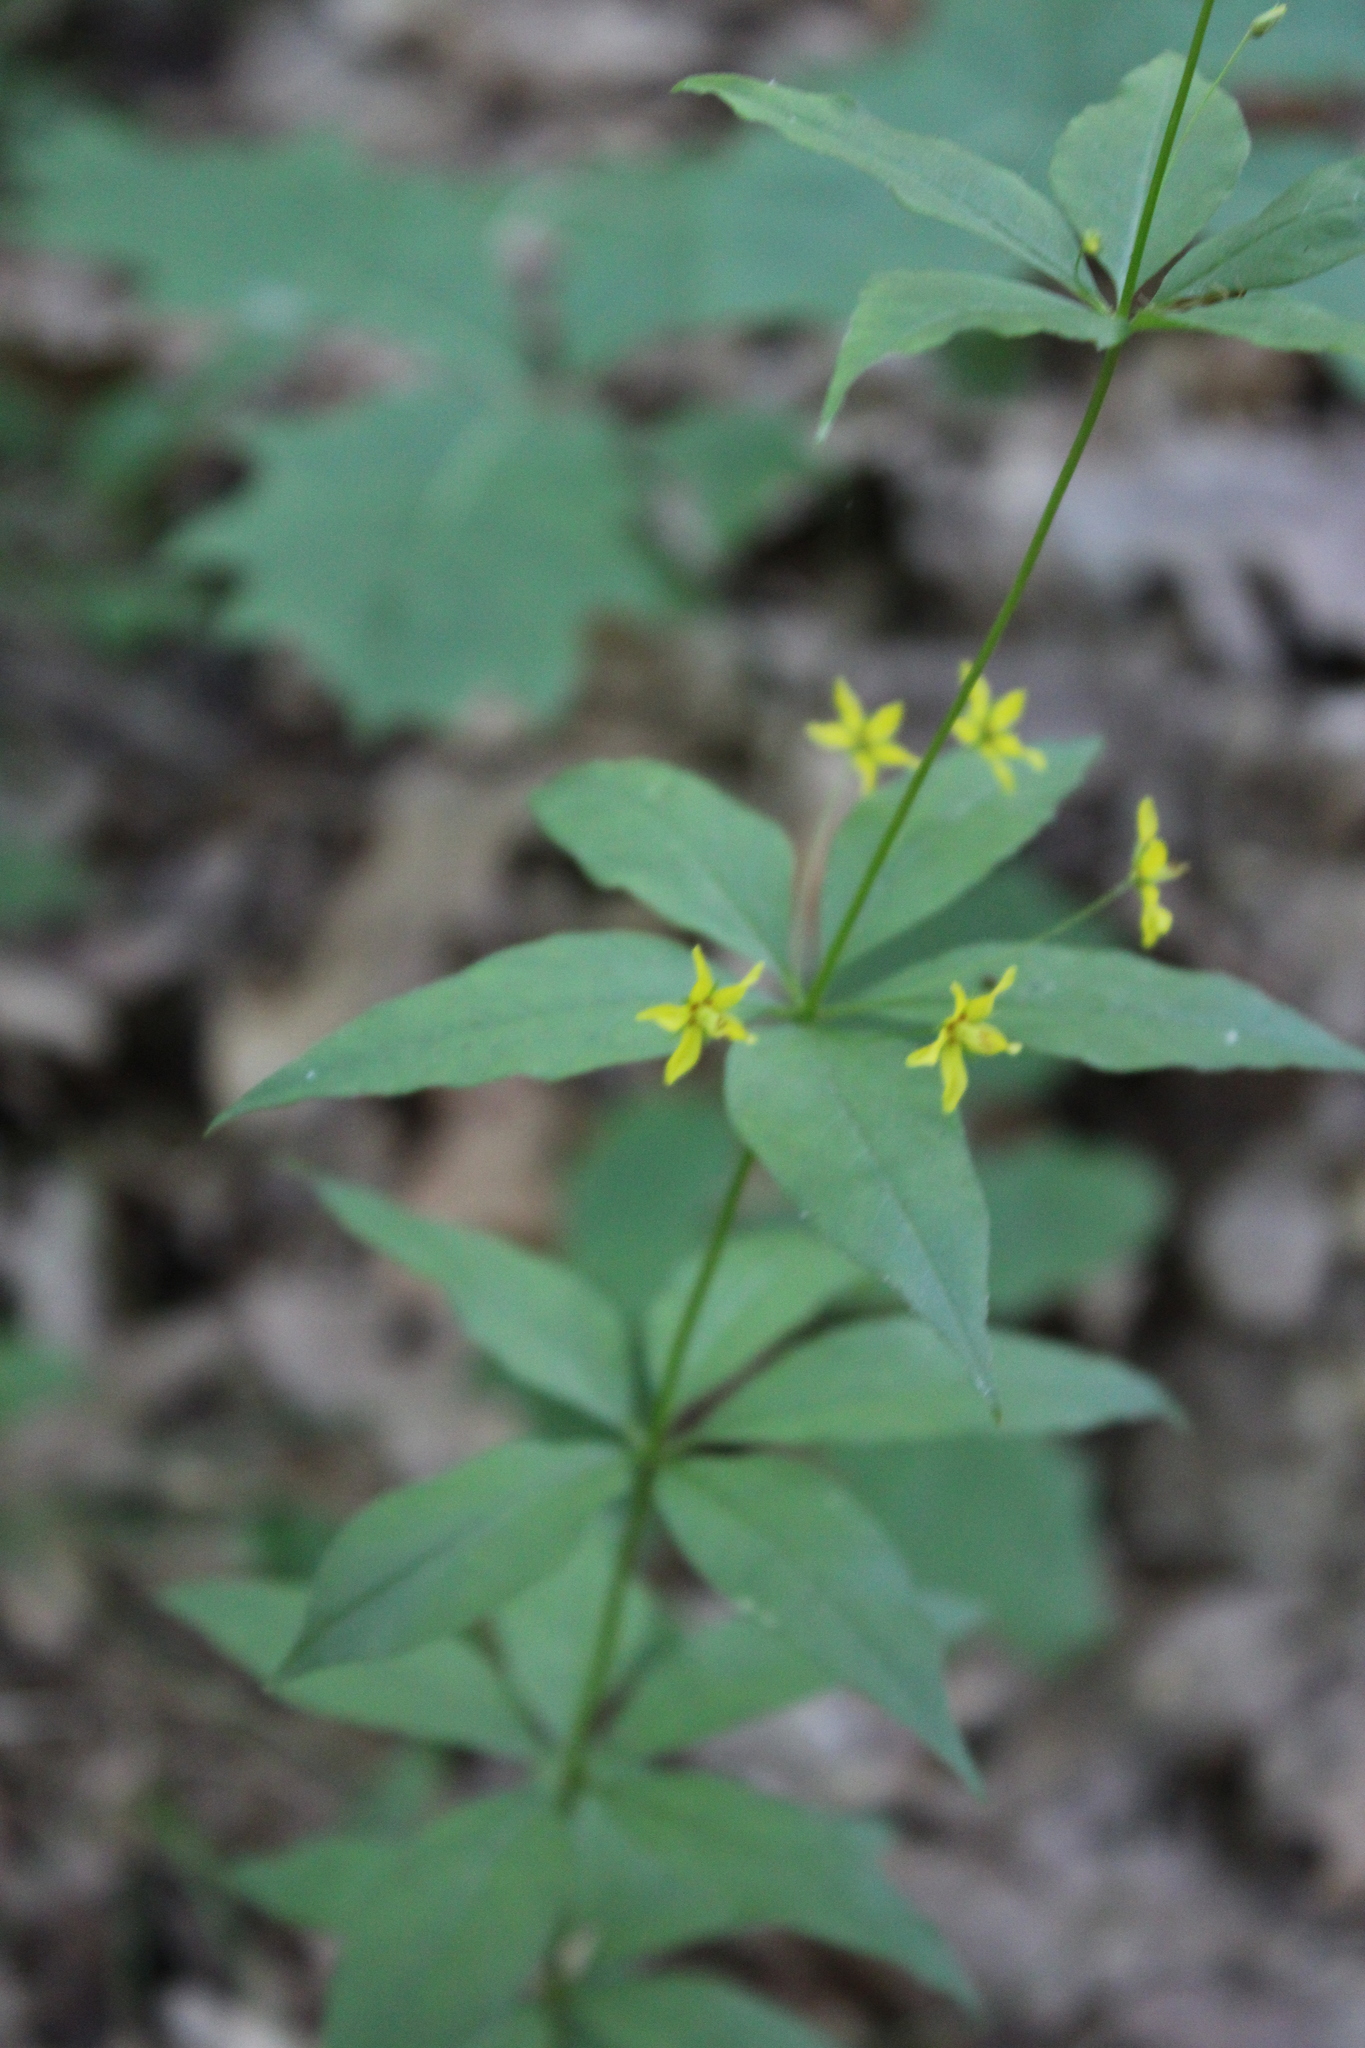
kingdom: Plantae
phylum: Tracheophyta
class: Magnoliopsida
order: Ericales
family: Primulaceae
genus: Lysimachia
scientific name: Lysimachia quadrifolia
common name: Whorled loosestrife
